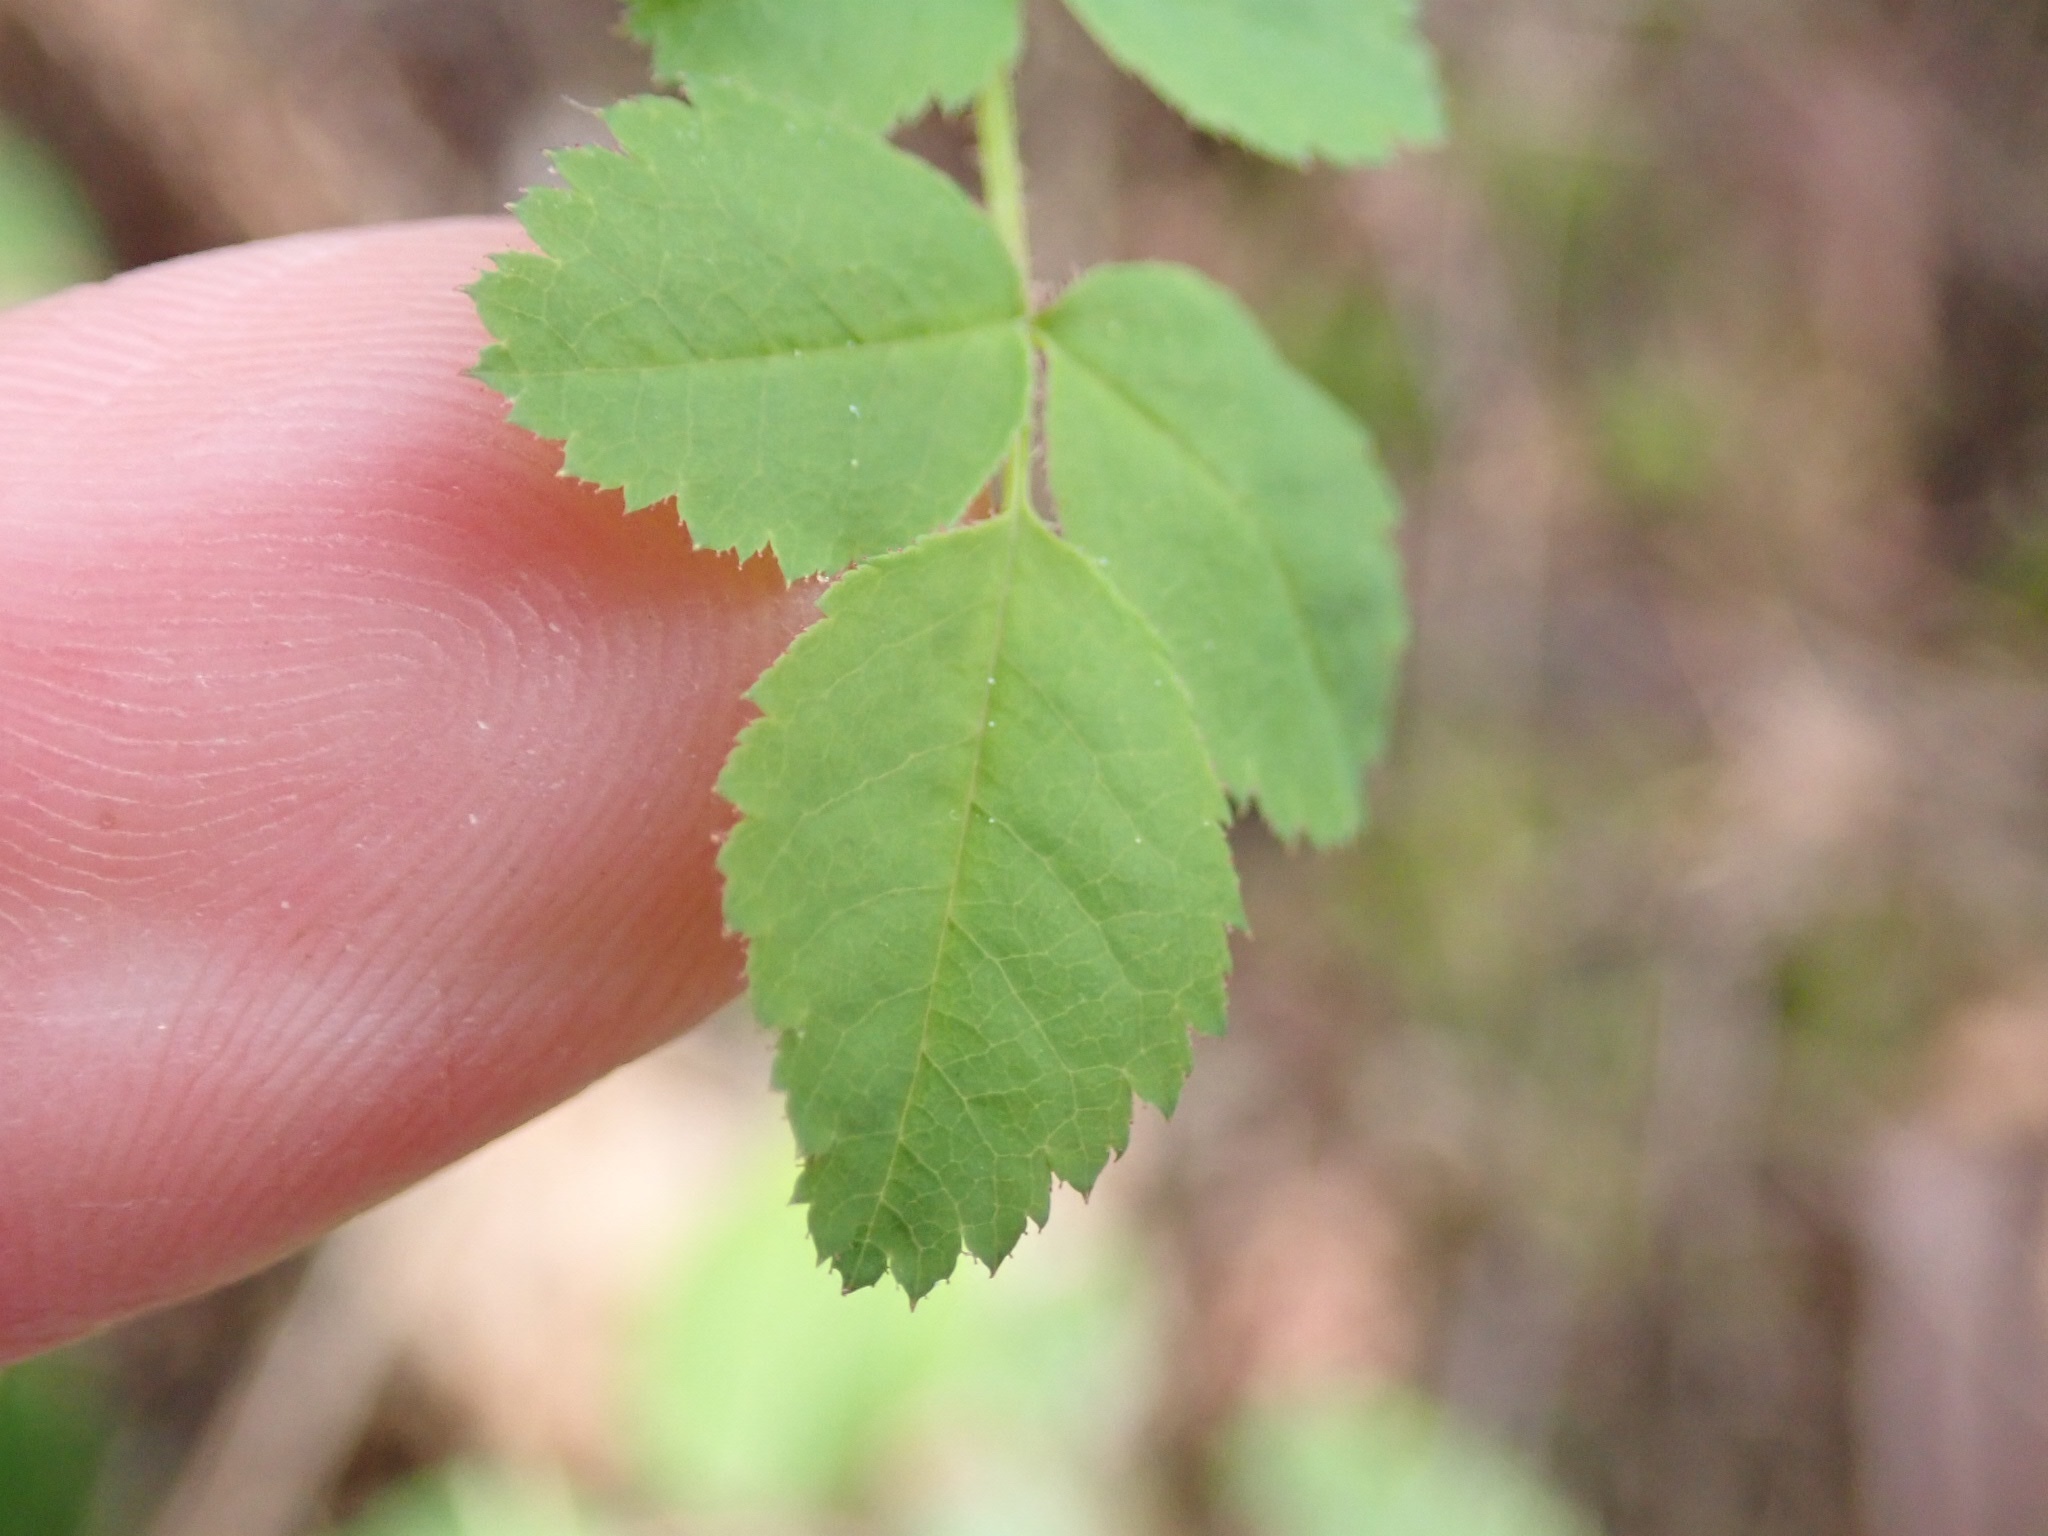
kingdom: Plantae
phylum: Tracheophyta
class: Magnoliopsida
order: Rosales
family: Rosaceae
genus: Rosa
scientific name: Rosa gymnocarpa
